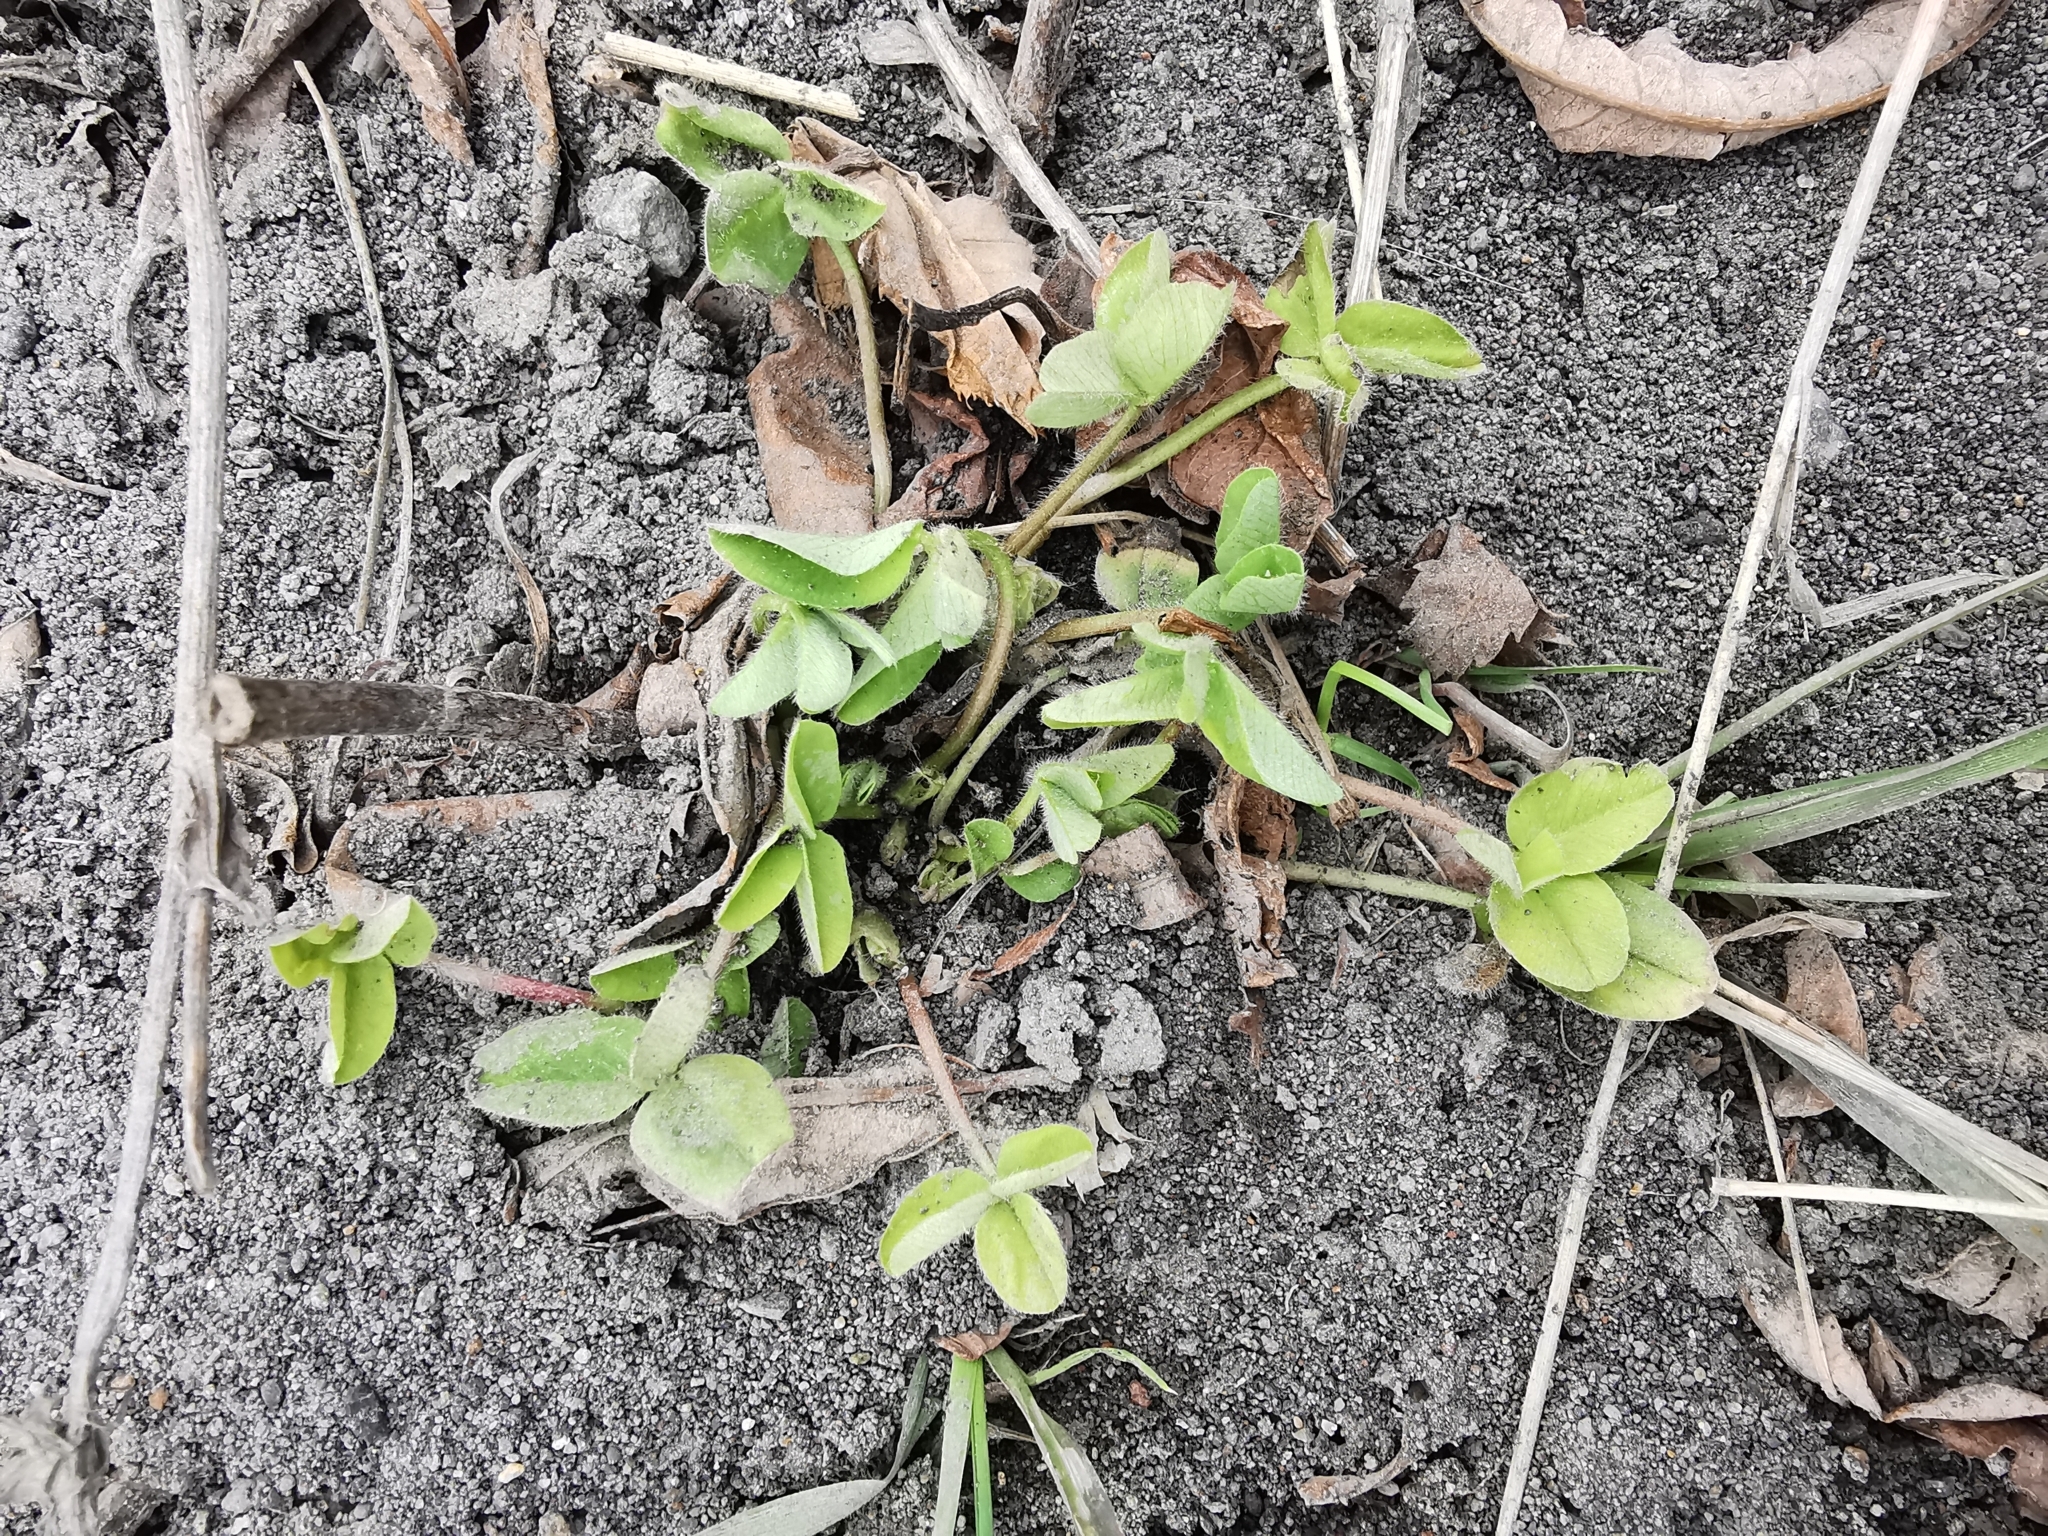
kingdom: Plantae
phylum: Tracheophyta
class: Magnoliopsida
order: Fabales
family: Fabaceae
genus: Trifolium
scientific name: Trifolium pratense
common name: Red clover
